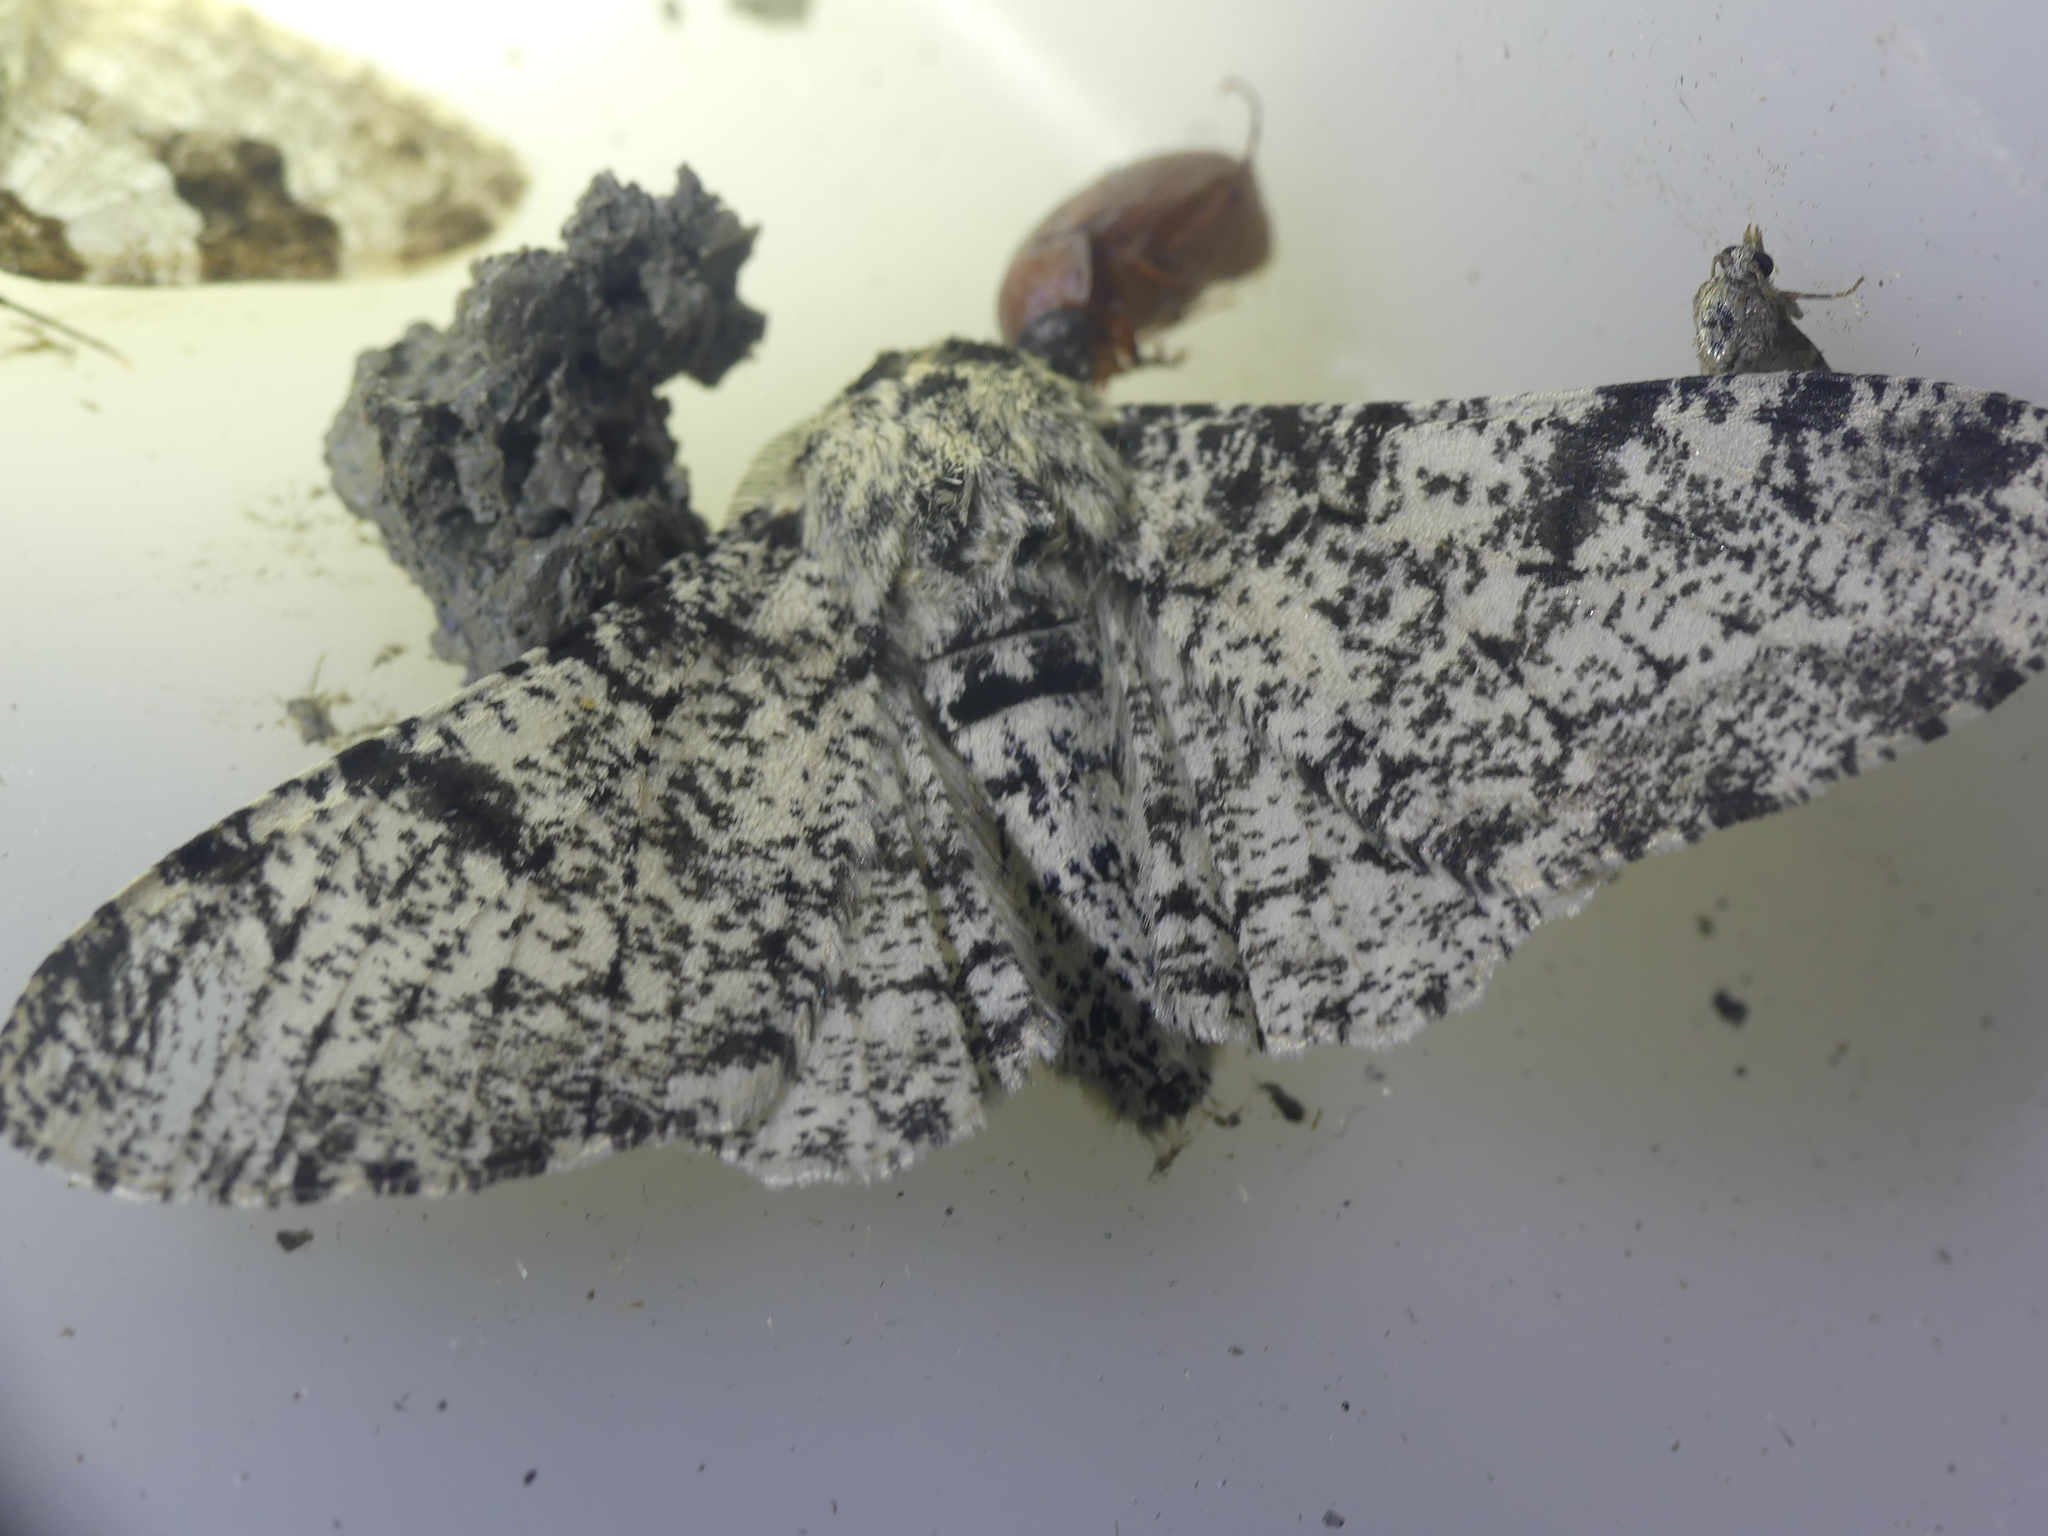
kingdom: Animalia
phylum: Arthropoda
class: Insecta
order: Lepidoptera
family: Geometridae
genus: Biston
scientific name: Biston betularia
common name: Peppered moth
